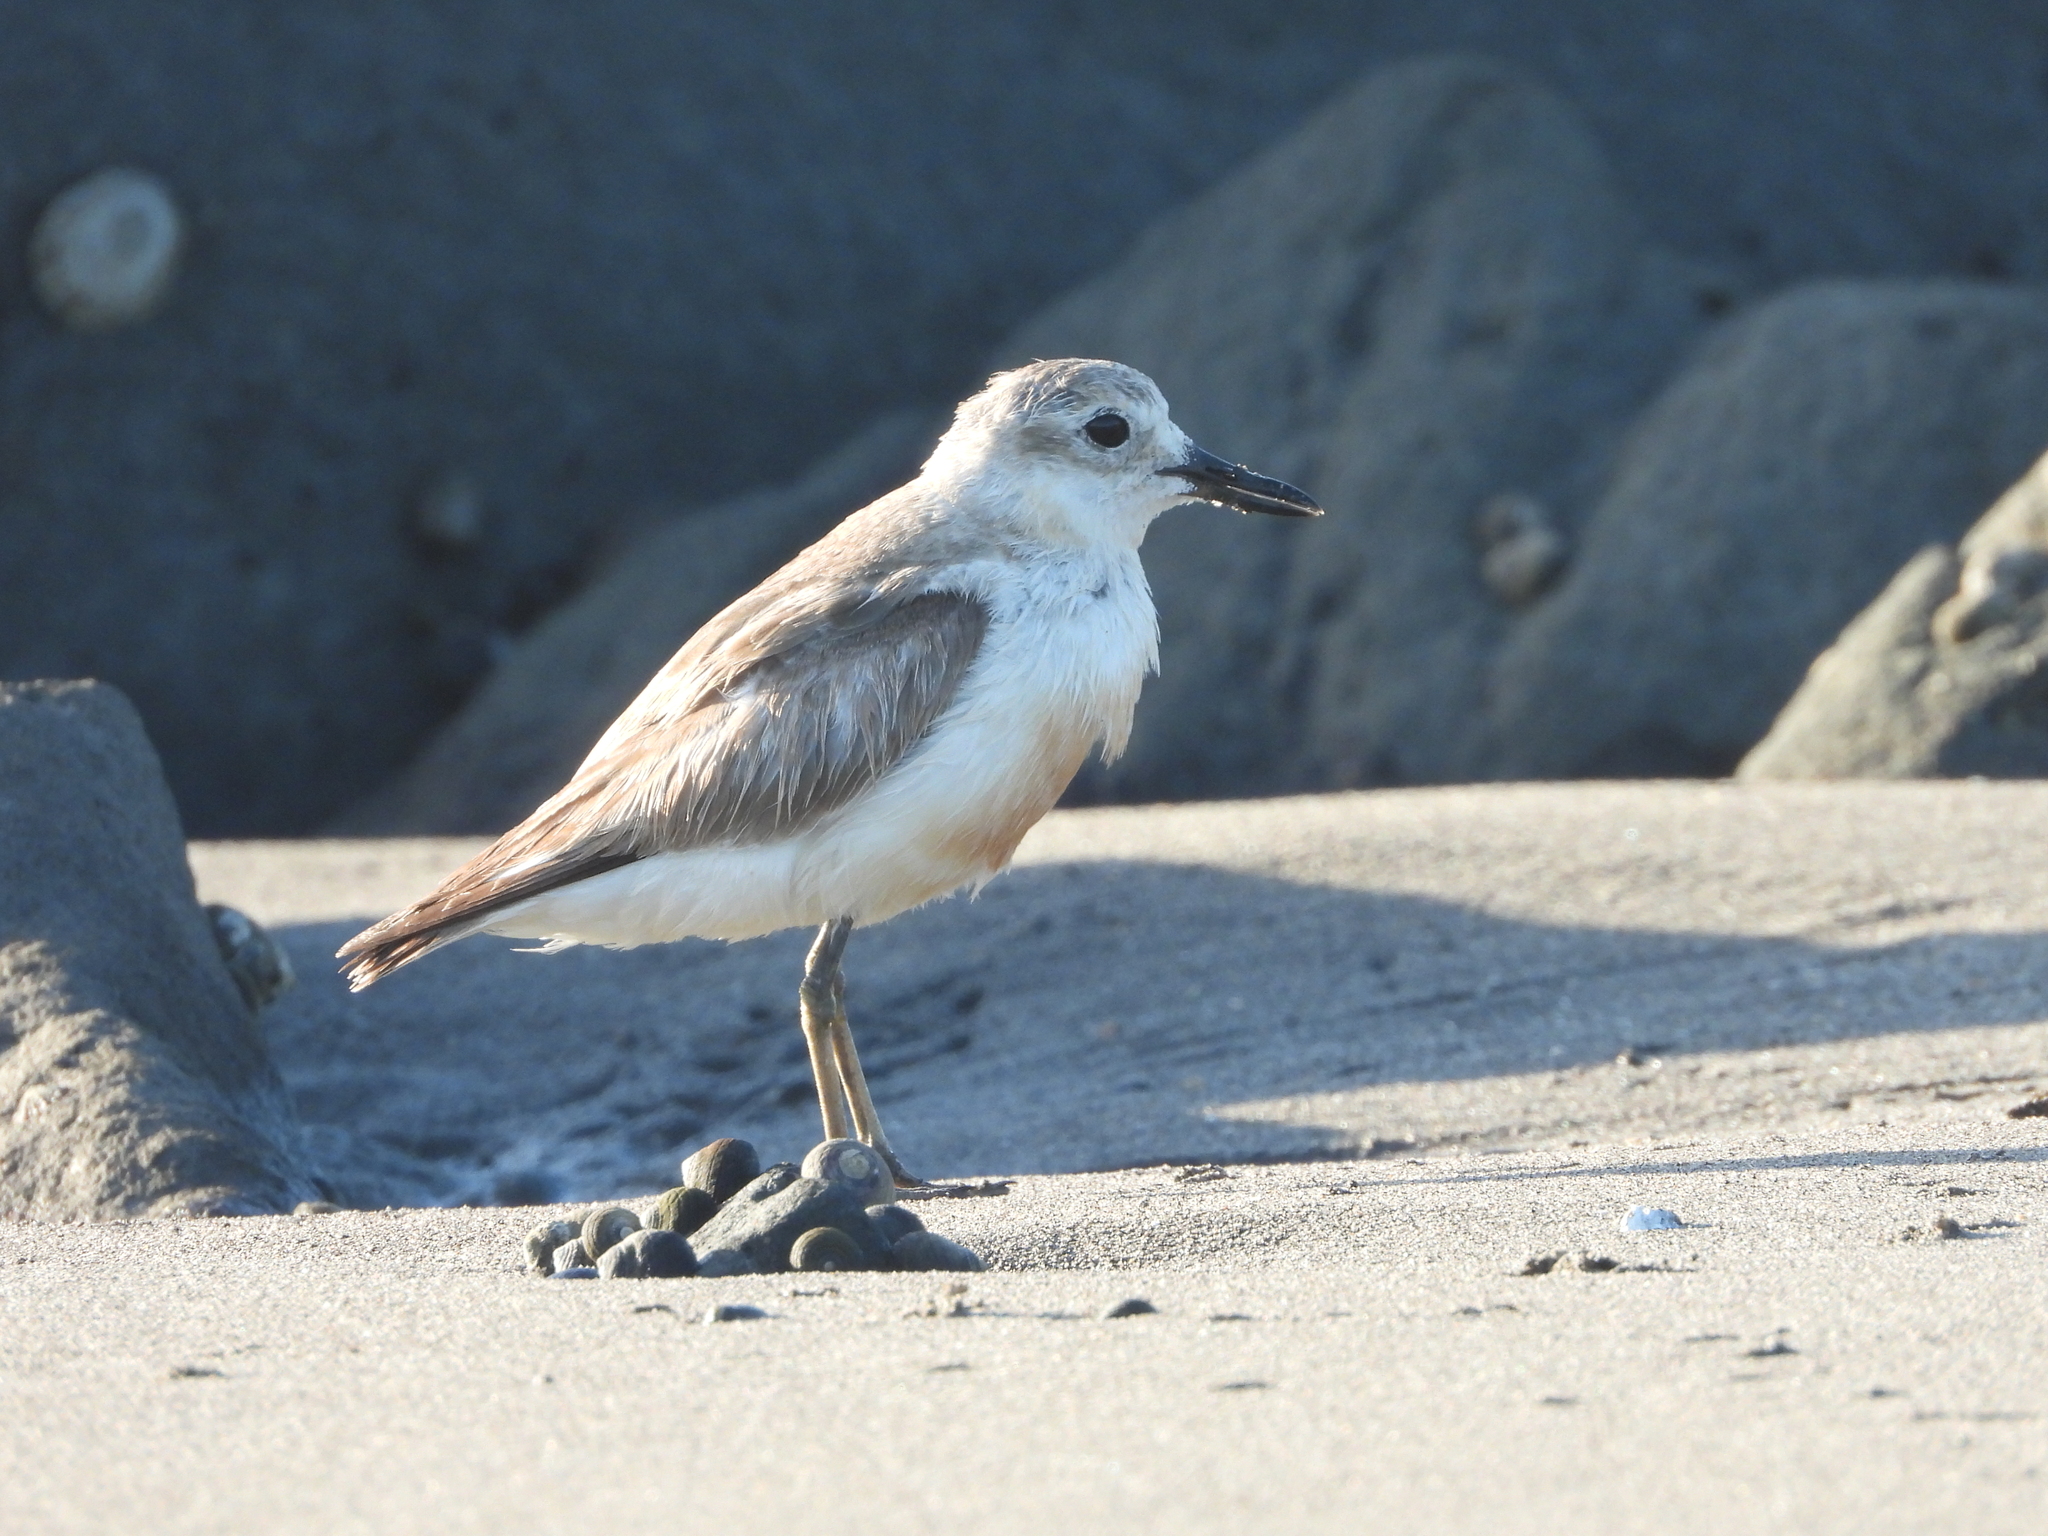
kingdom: Animalia
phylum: Chordata
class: Aves
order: Charadriiformes
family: Charadriidae
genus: Anarhynchus
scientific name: Anarhynchus
